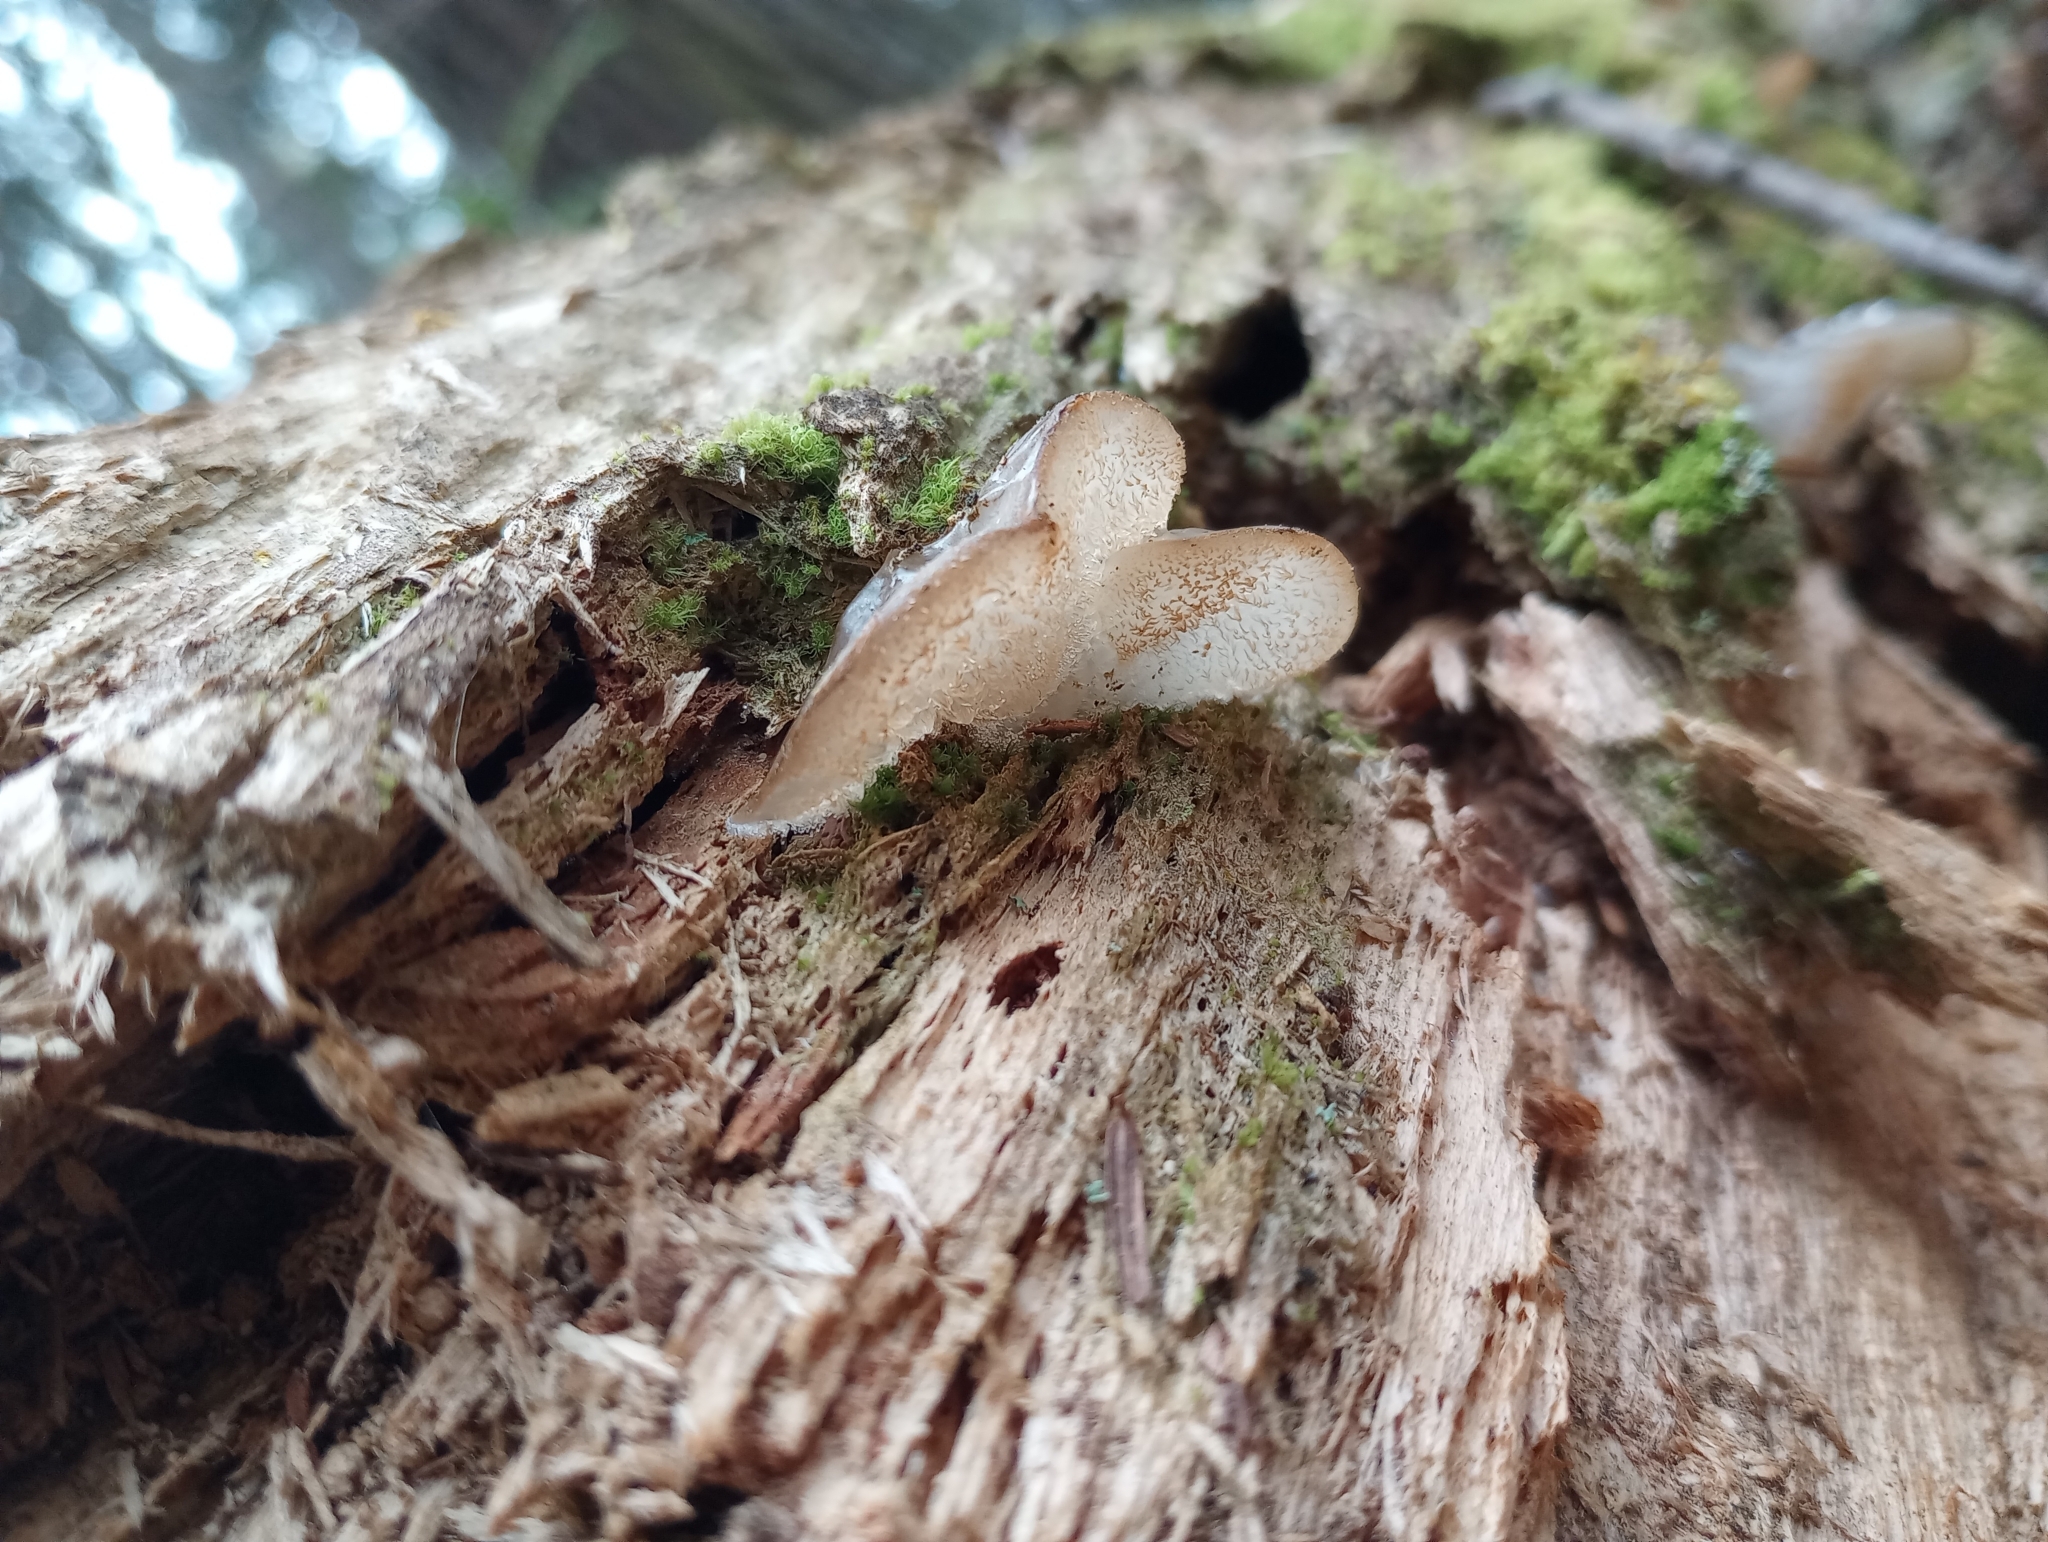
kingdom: Fungi
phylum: Basidiomycota
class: Agaricomycetes
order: Auriculariales
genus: Pseudohydnum
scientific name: Pseudohydnum gelatinosum
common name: Jelly tongue
